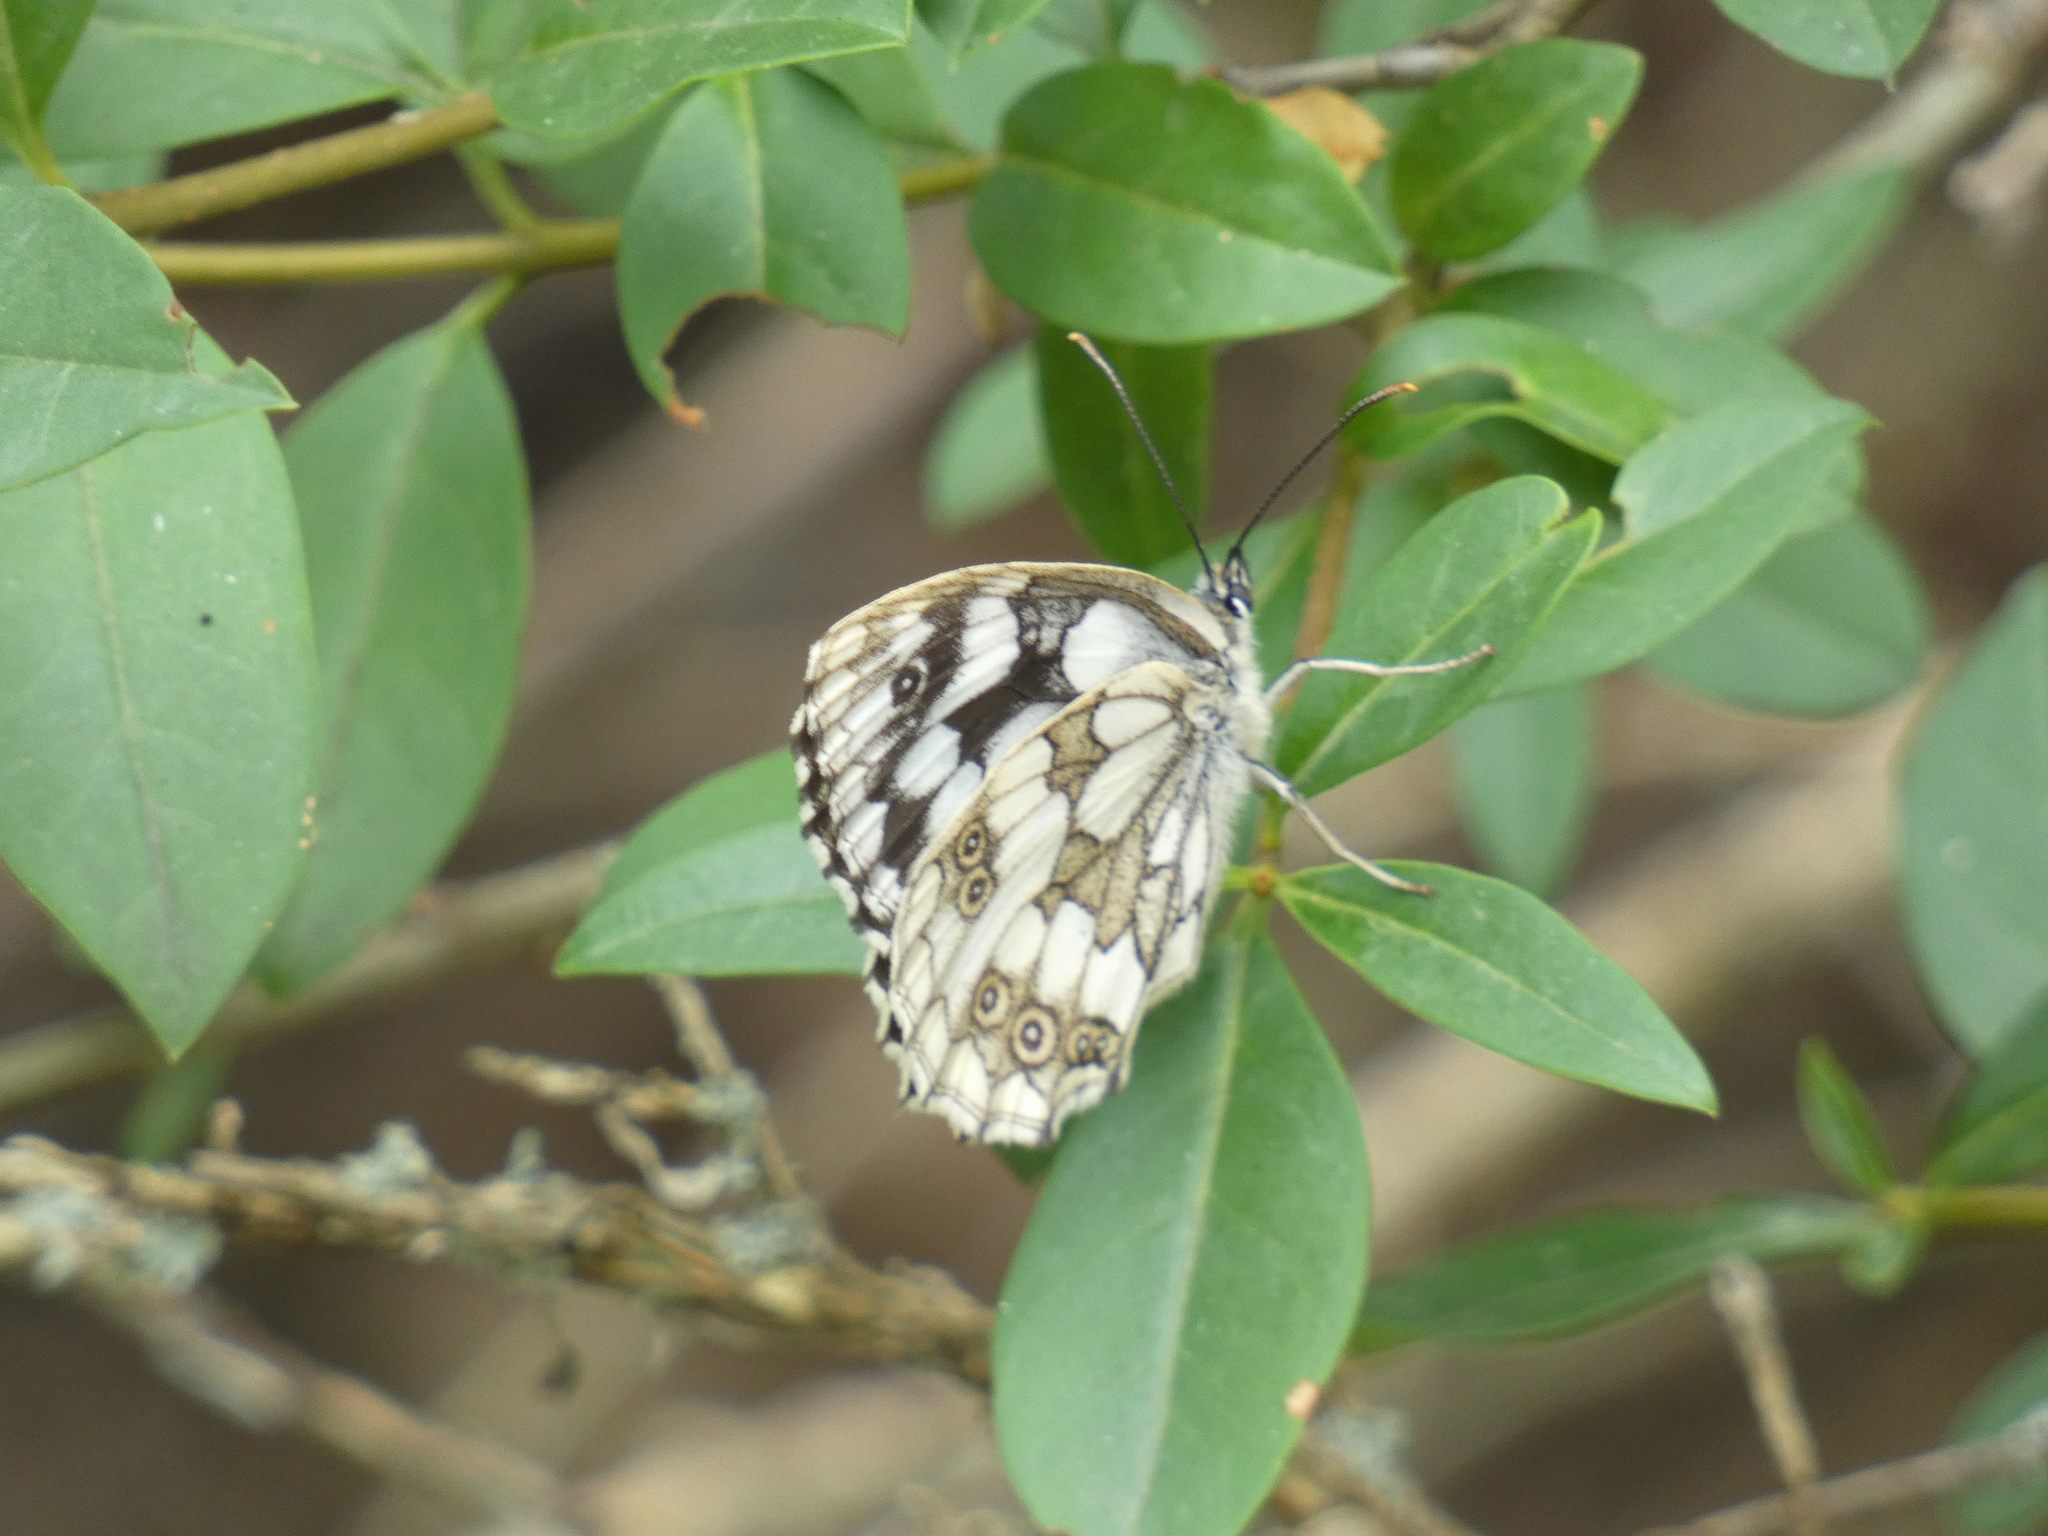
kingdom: Animalia
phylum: Arthropoda
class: Insecta
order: Lepidoptera
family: Nymphalidae
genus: Melanargia
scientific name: Melanargia galathea
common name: Marbled white
